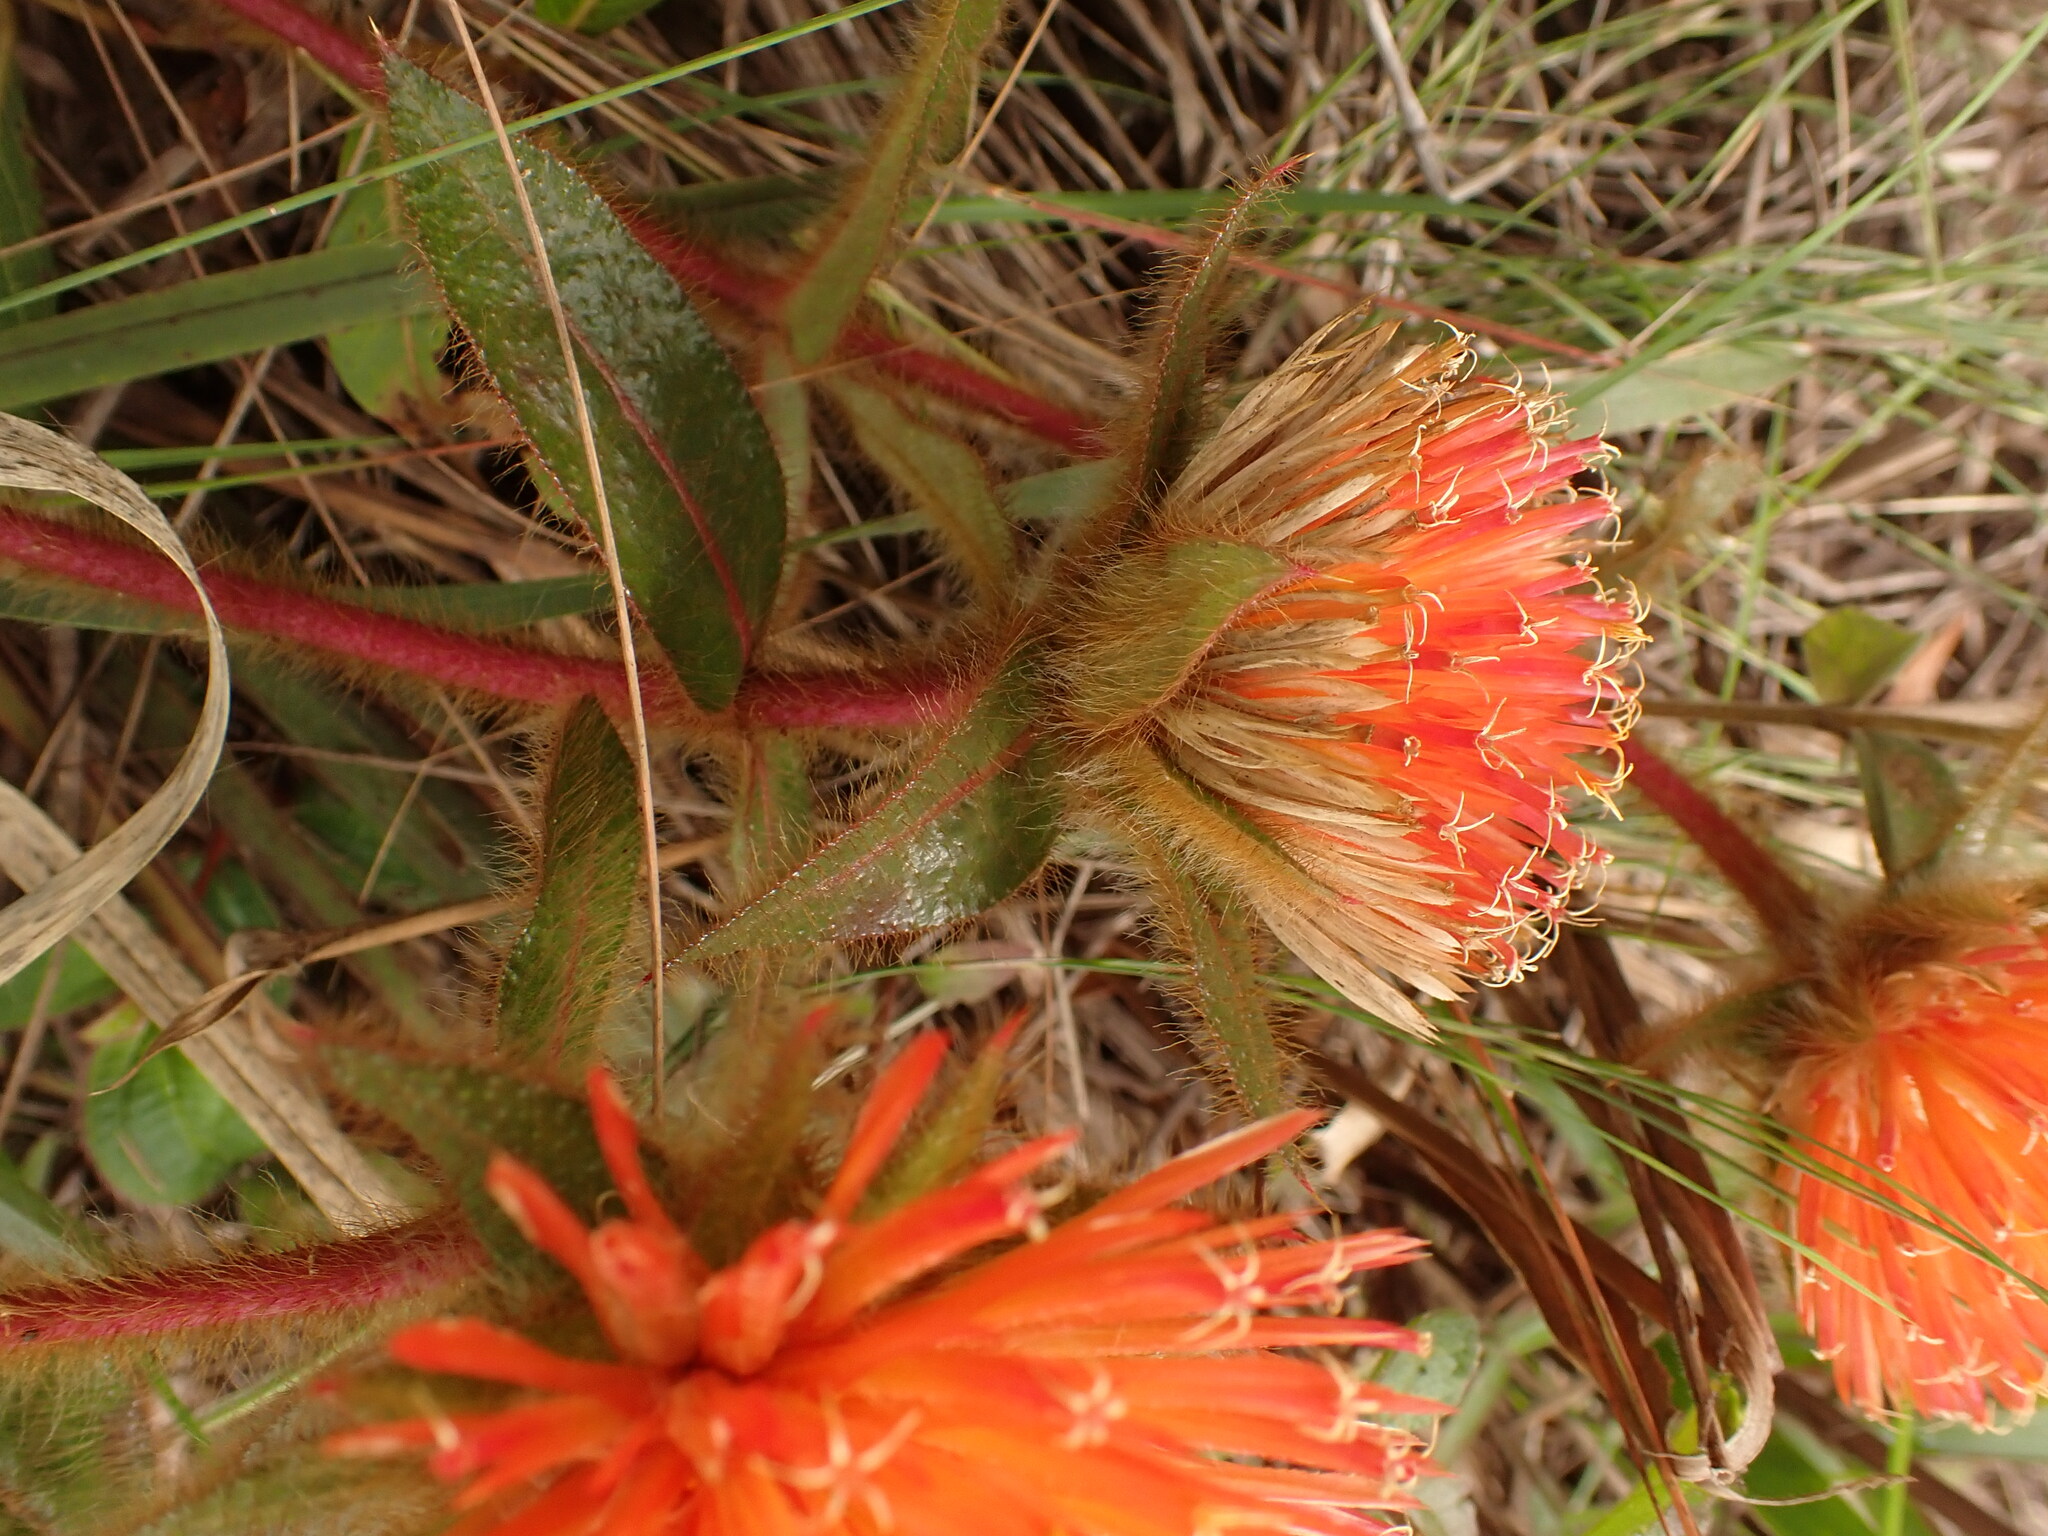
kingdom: Plantae
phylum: Tracheophyta
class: Magnoliopsida
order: Caryophyllales
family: Amaranthaceae
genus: Gomphrena
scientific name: Gomphrena arborescens
